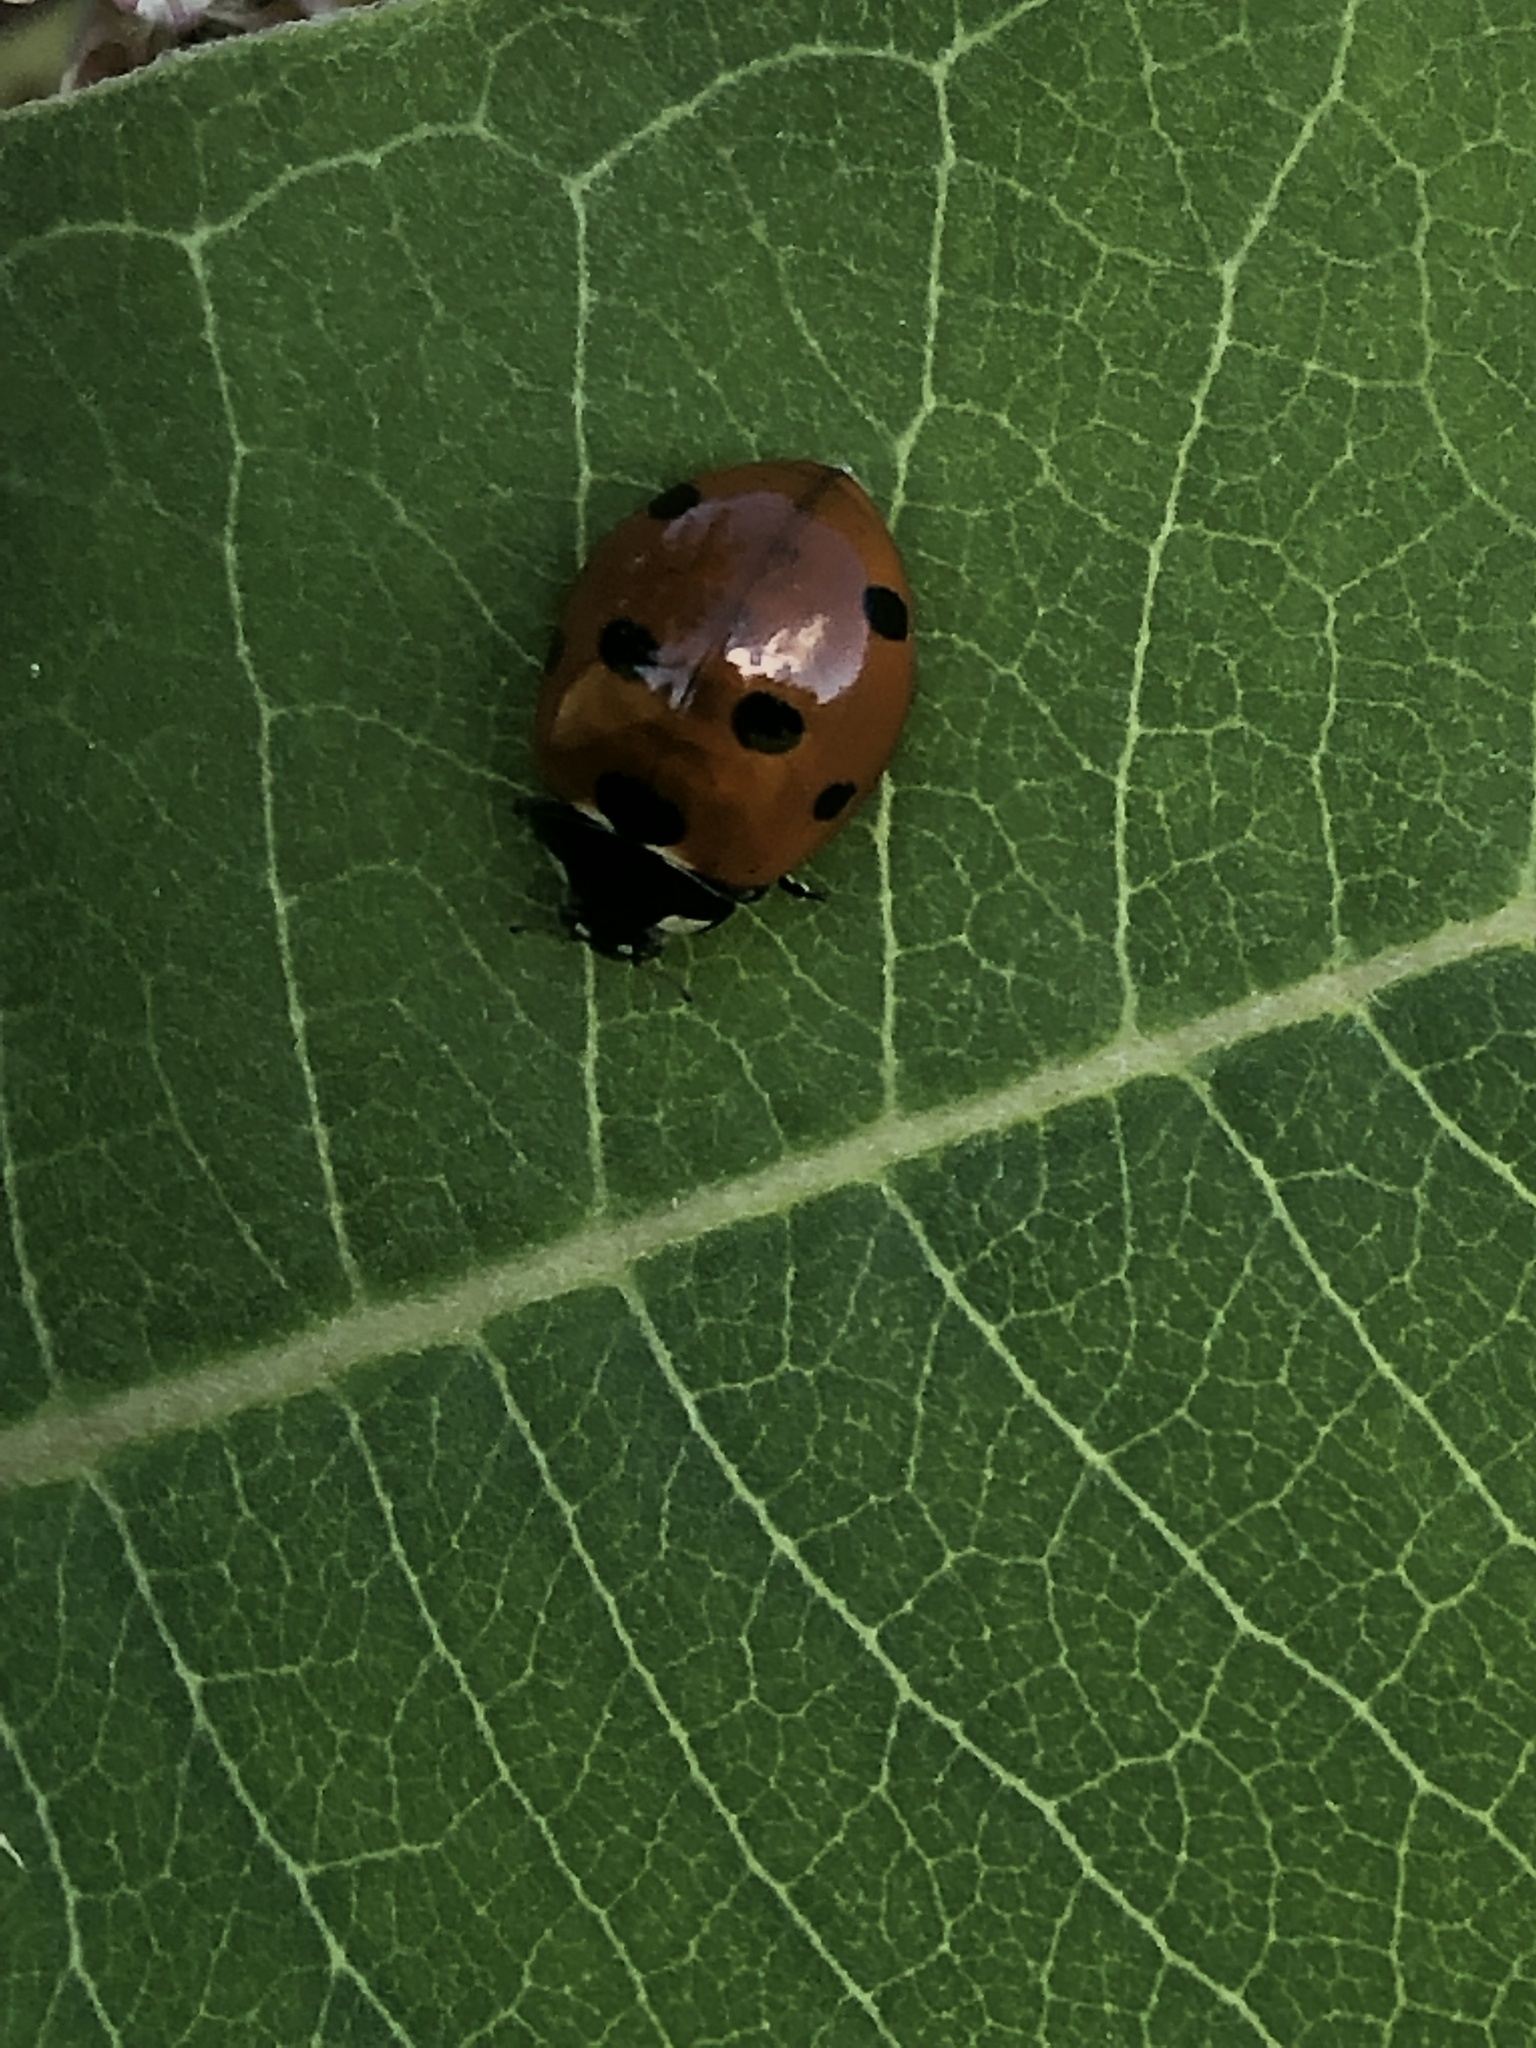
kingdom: Animalia
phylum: Arthropoda
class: Insecta
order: Coleoptera
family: Coccinellidae
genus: Coccinella
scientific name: Coccinella septempunctata
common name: Sevenspotted lady beetle
